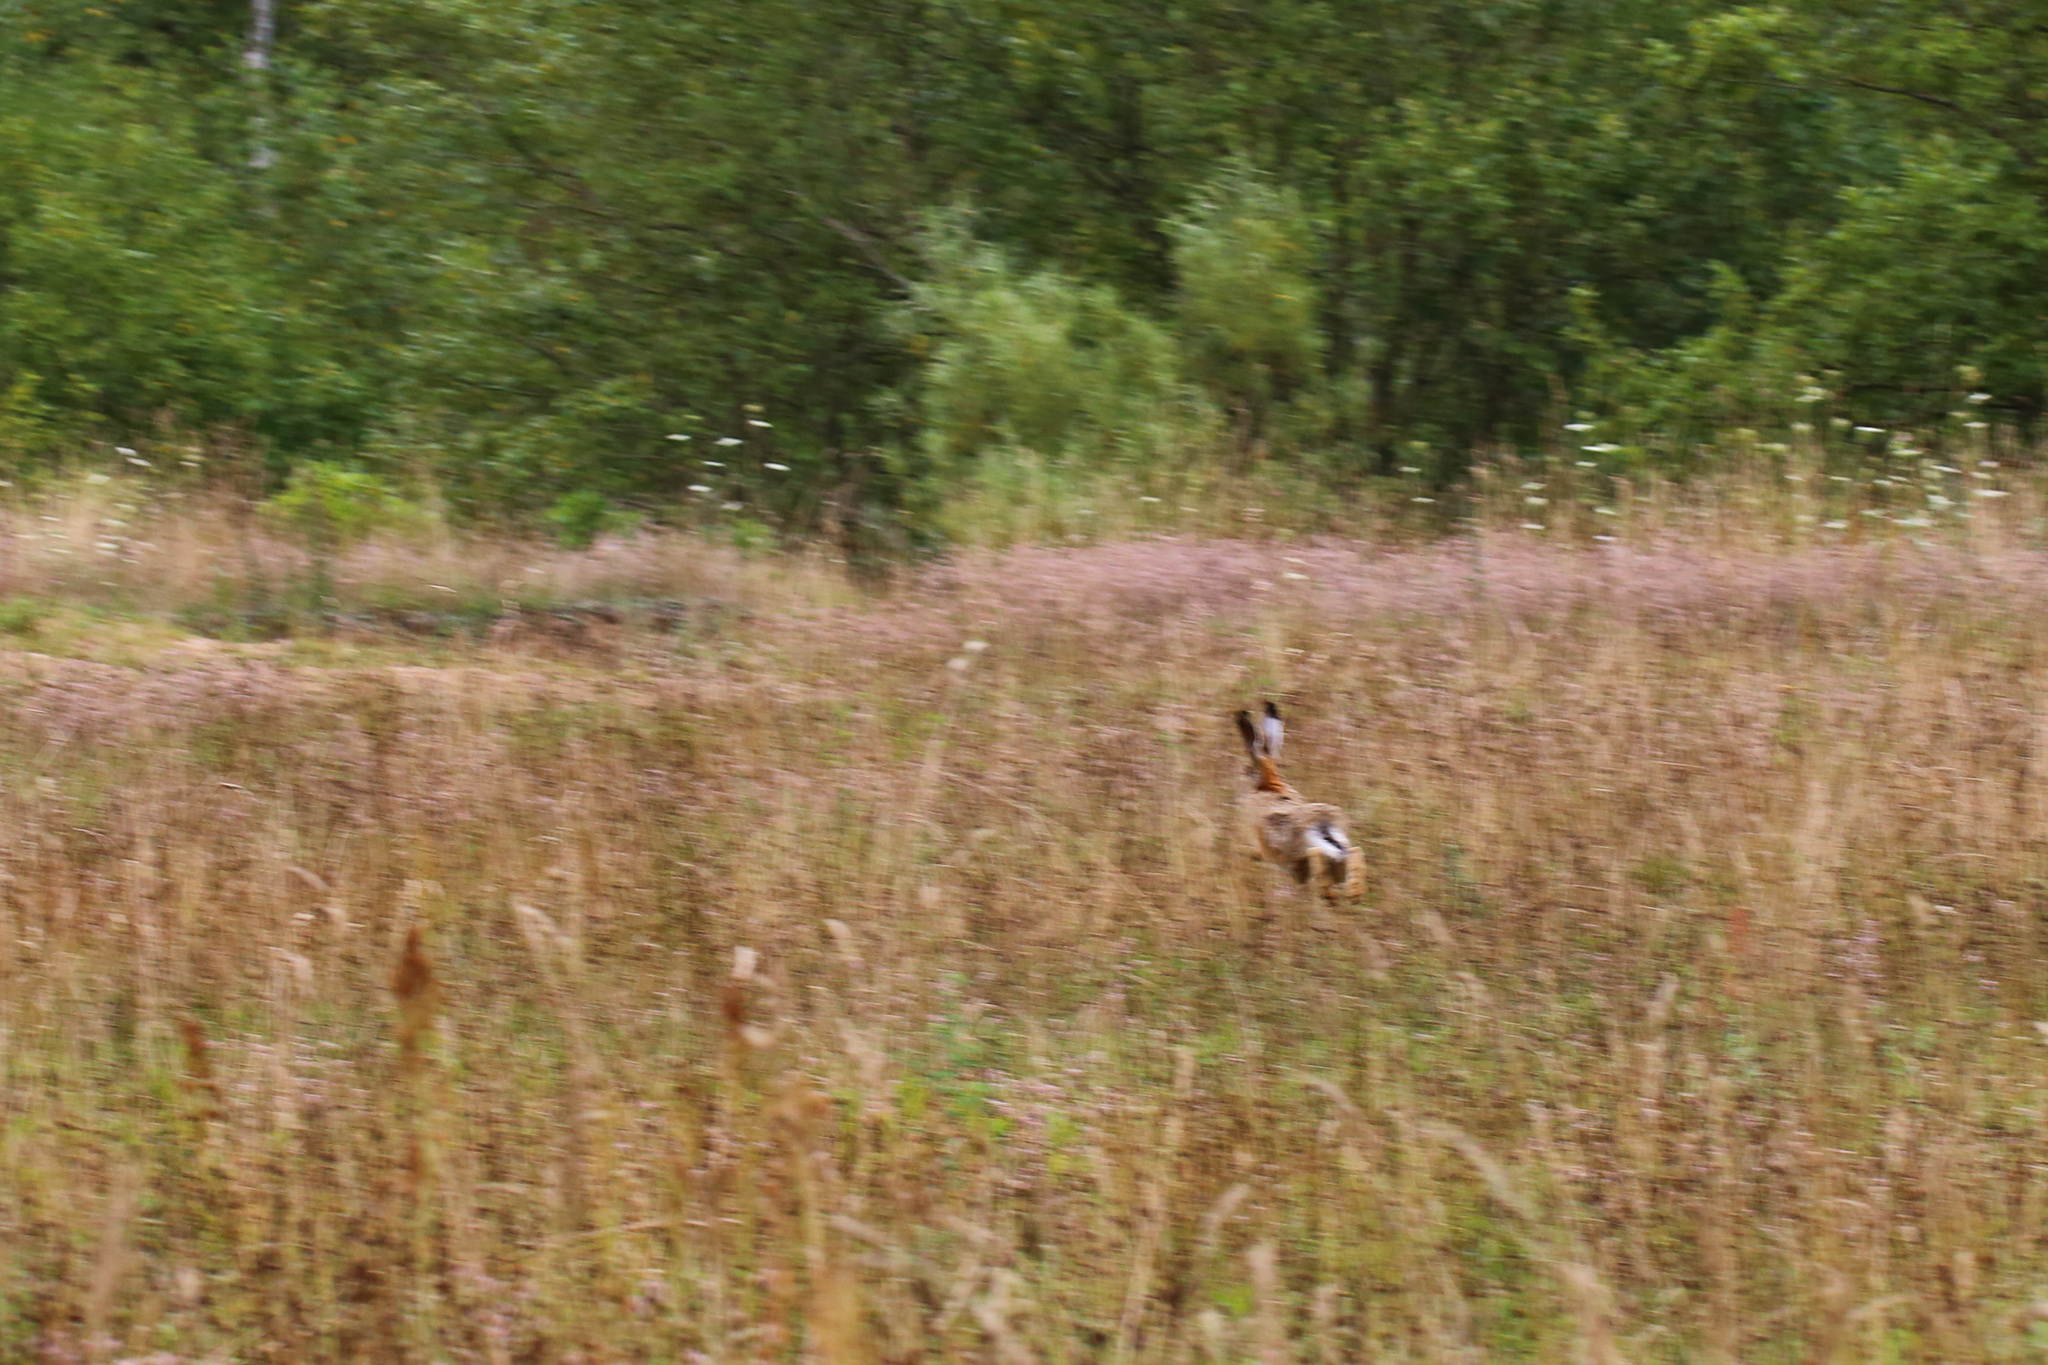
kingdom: Animalia
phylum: Chordata
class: Mammalia
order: Lagomorpha
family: Leporidae
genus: Lepus
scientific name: Lepus europaeus
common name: European hare
